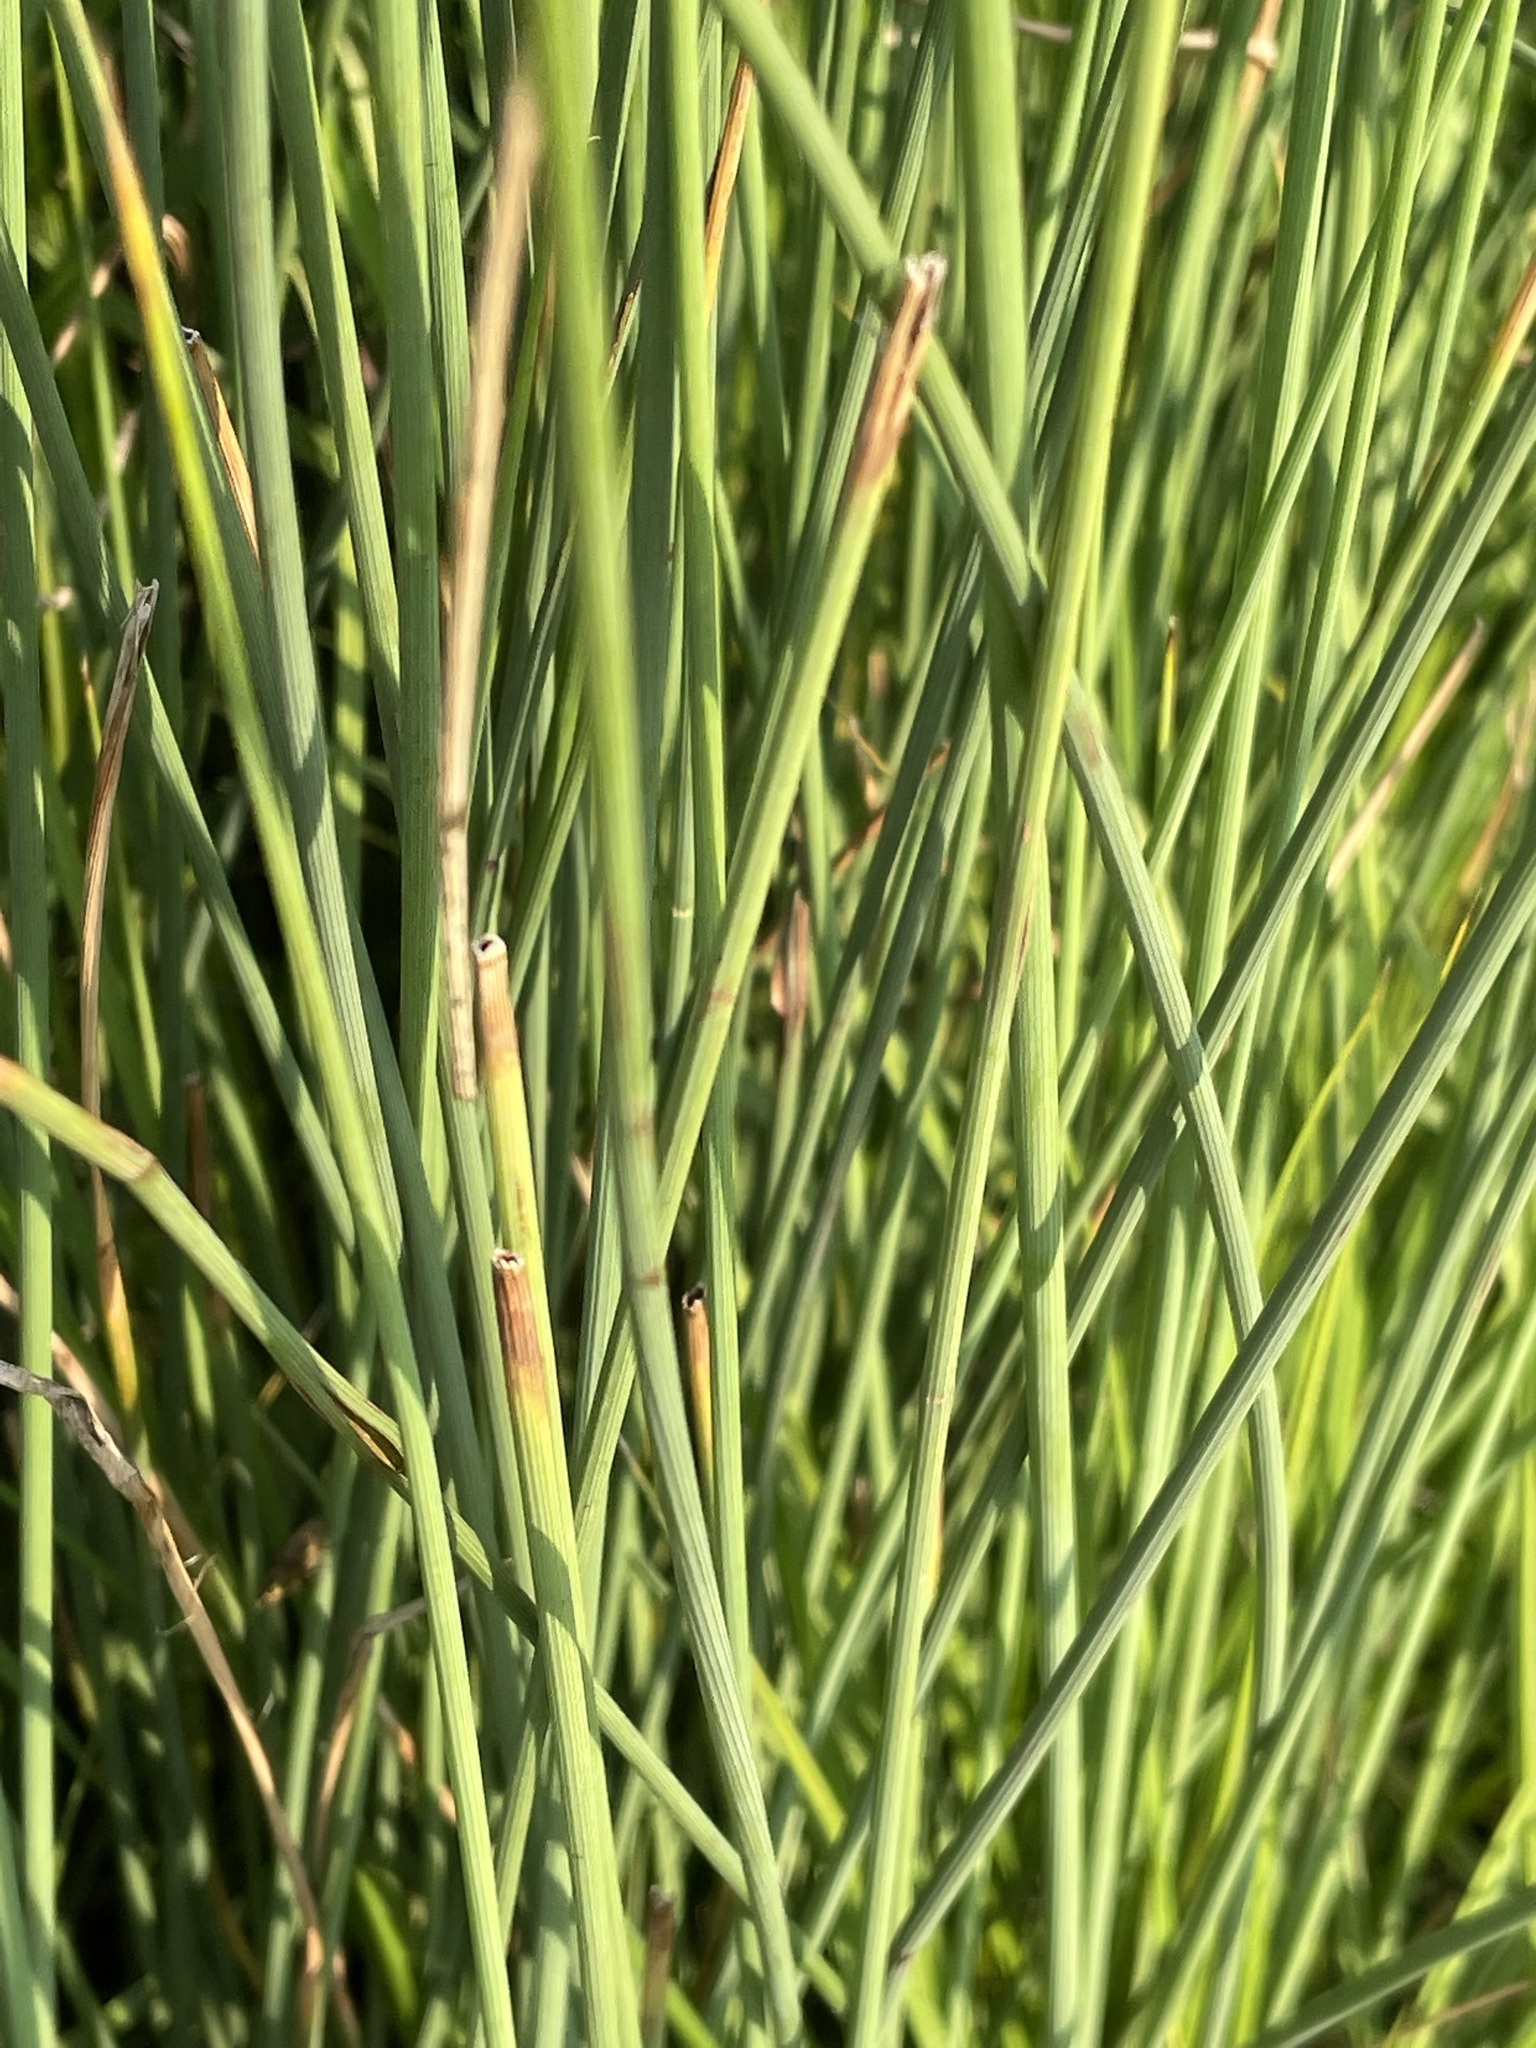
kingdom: Plantae
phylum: Tracheophyta
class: Liliopsida
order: Poales
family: Juncaceae
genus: Juncus
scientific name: Juncus inflexus
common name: Hard rush
